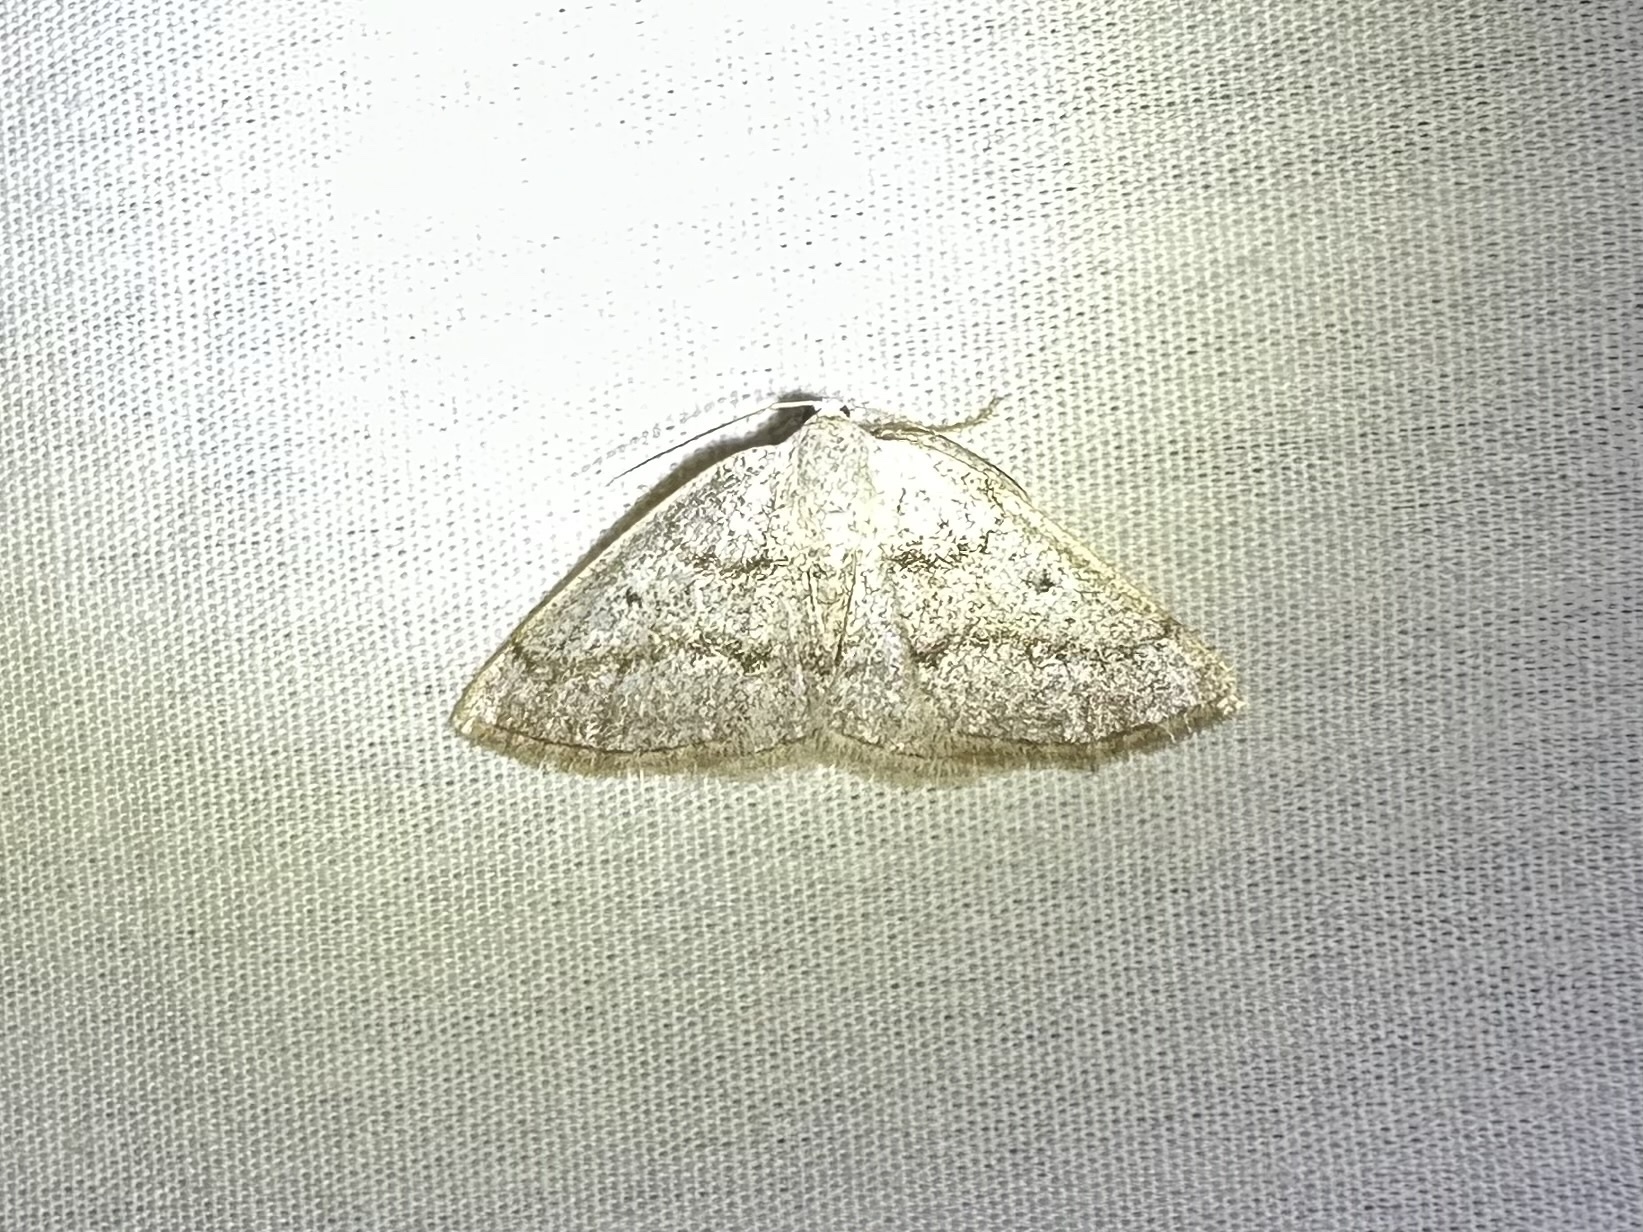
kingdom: Animalia
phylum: Arthropoda
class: Insecta
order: Lepidoptera
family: Geometridae
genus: Lomographa
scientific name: Lomographa glomeraria
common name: Gray spring moth
